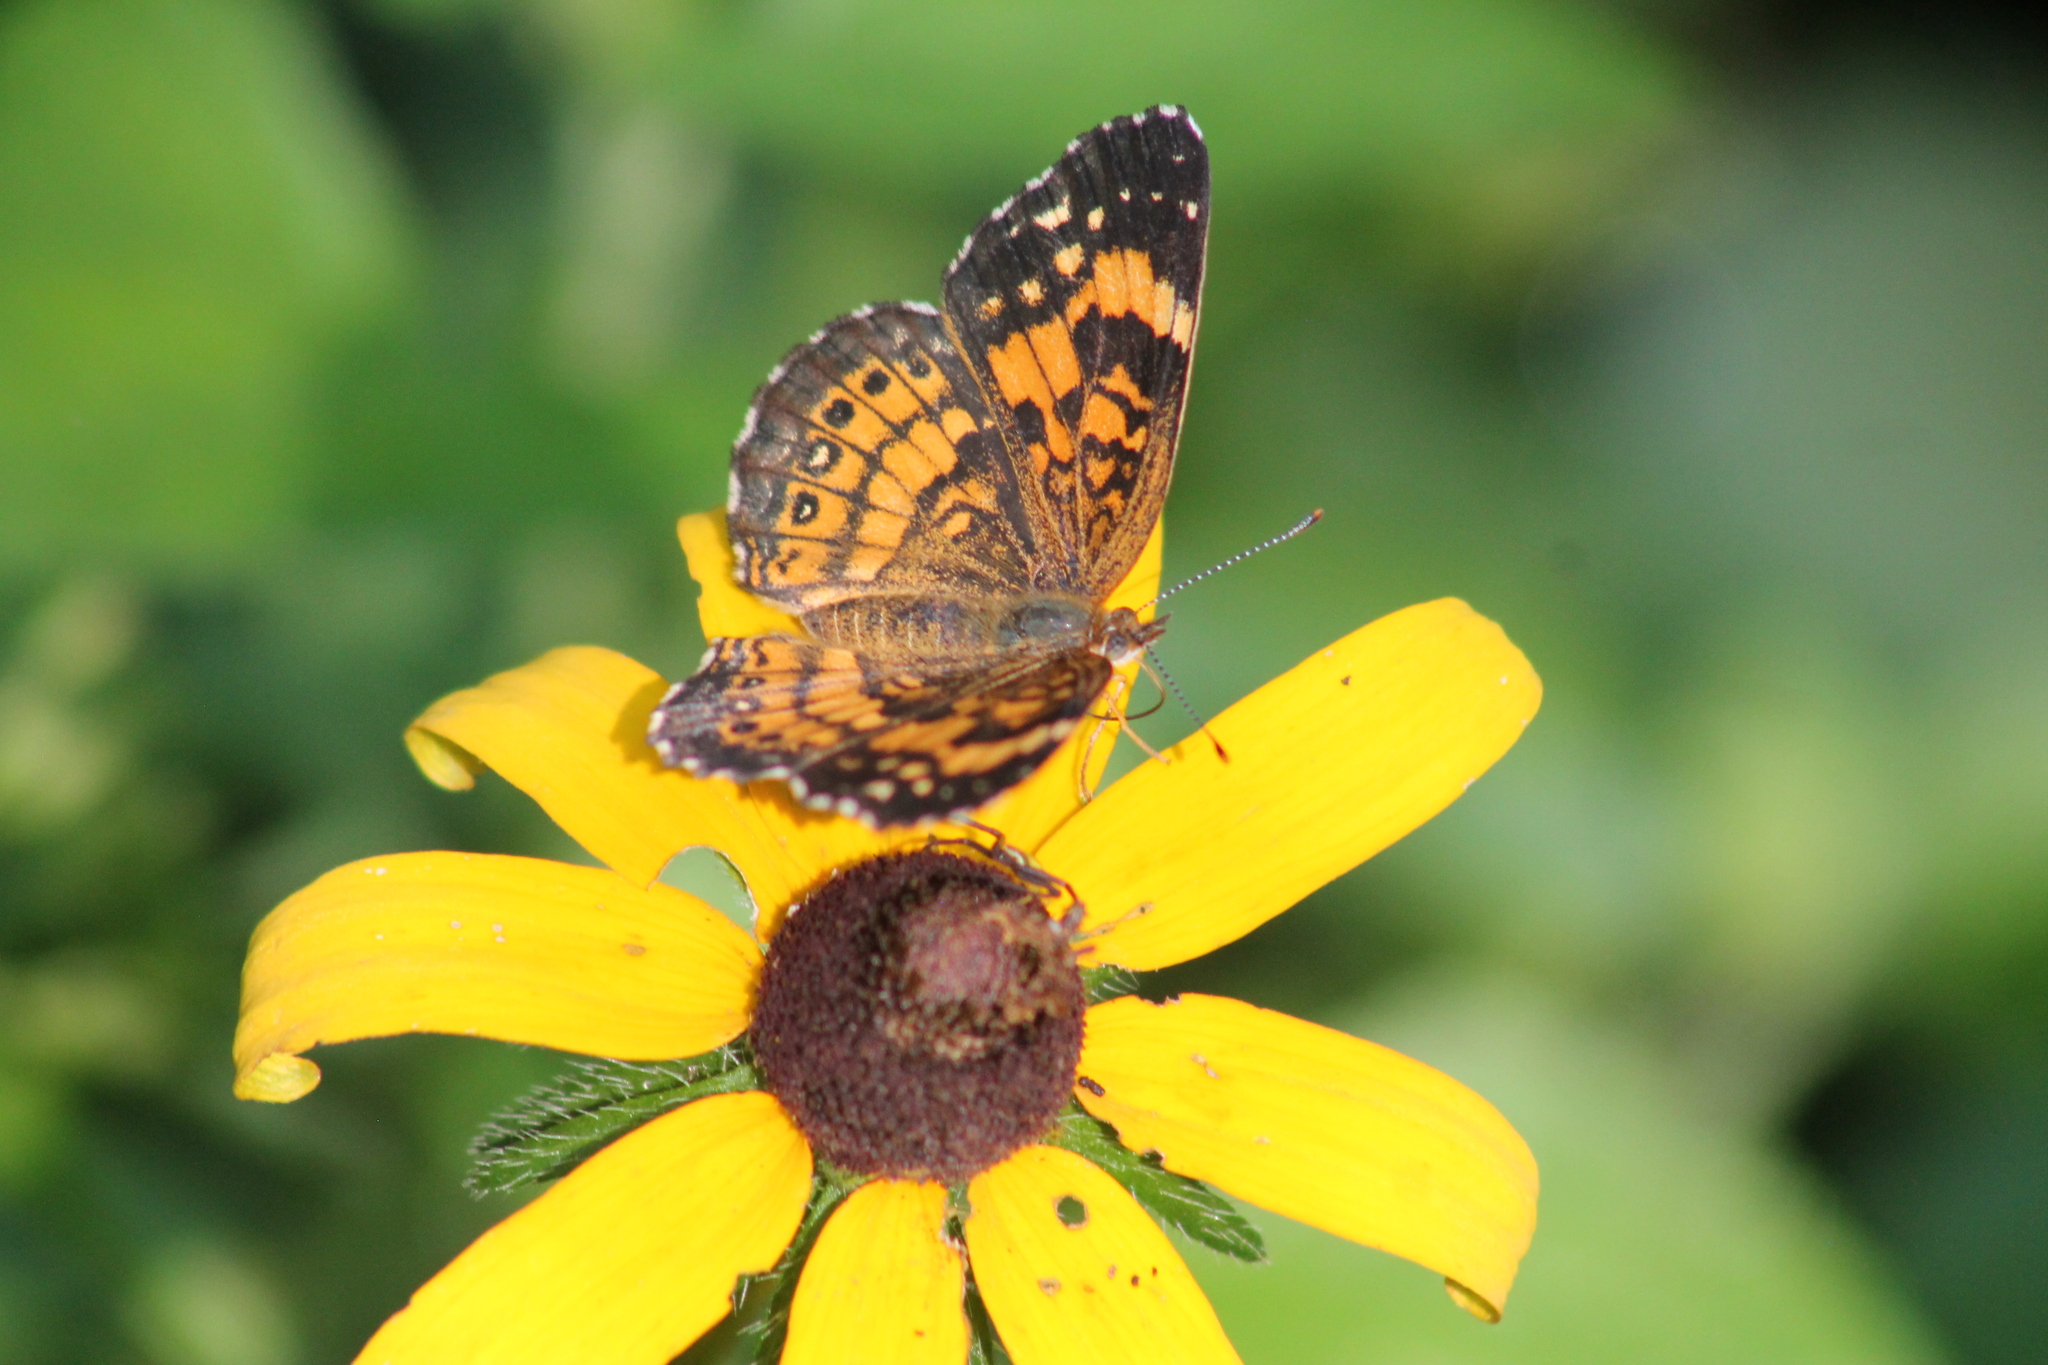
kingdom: Animalia
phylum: Arthropoda
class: Insecta
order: Lepidoptera
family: Nymphalidae
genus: Chlosyne
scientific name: Chlosyne nycteis
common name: Silvery checkerspot
